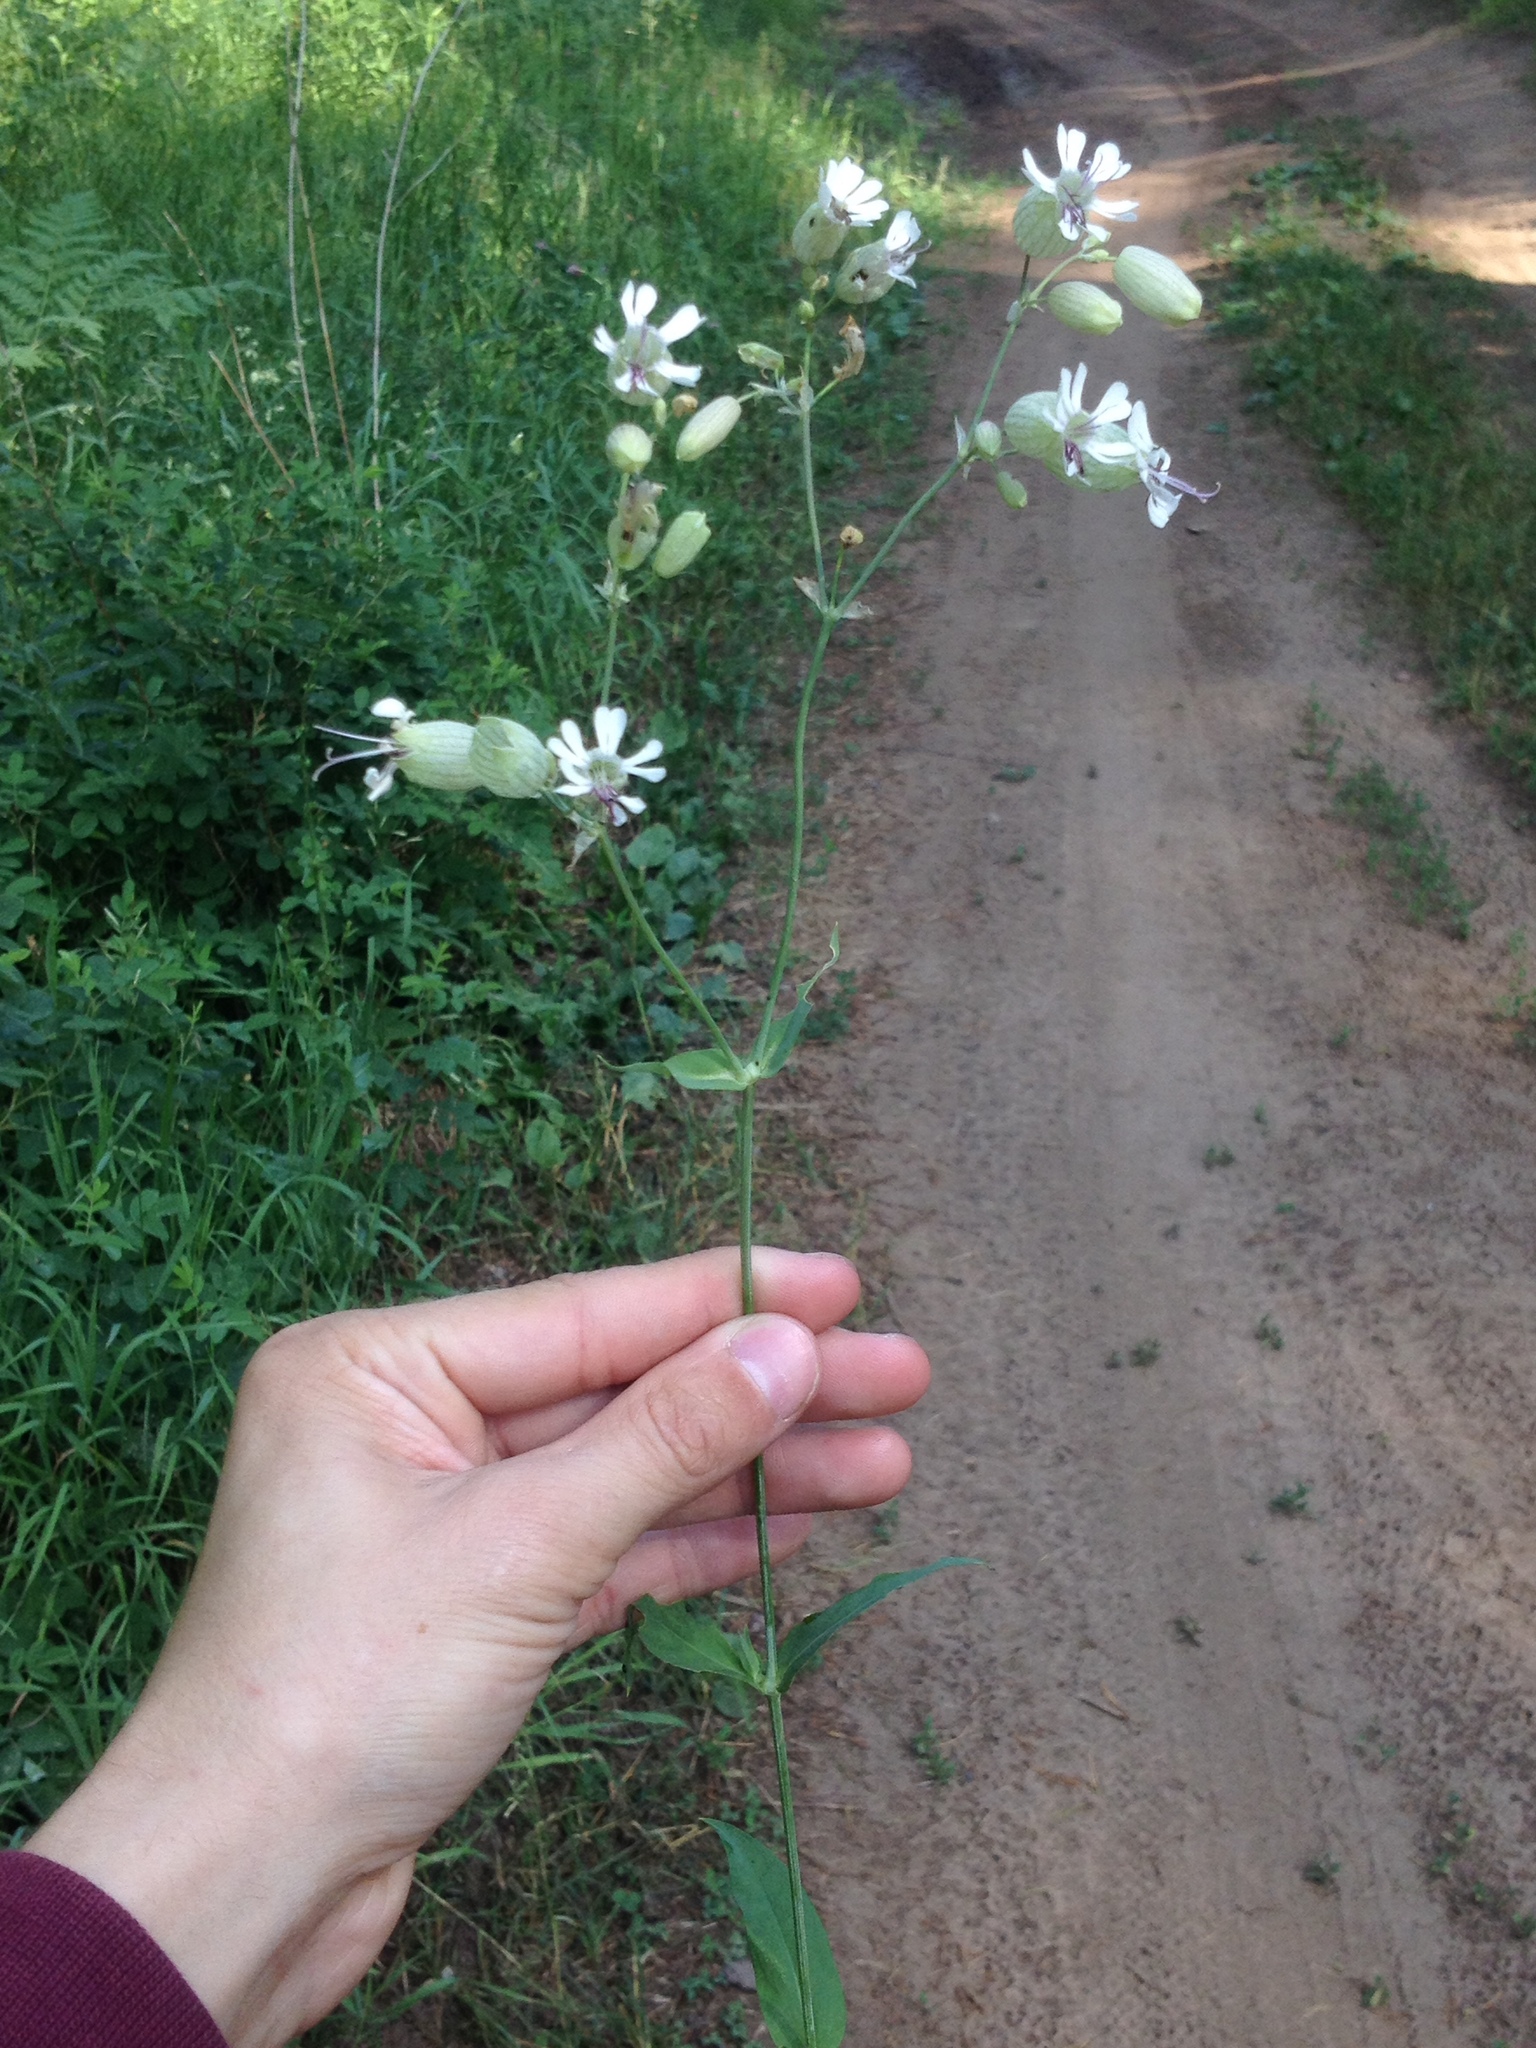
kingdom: Plantae
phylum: Tracheophyta
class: Magnoliopsida
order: Caryophyllales
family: Caryophyllaceae
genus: Silene
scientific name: Silene vulgaris
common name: Bladder campion
